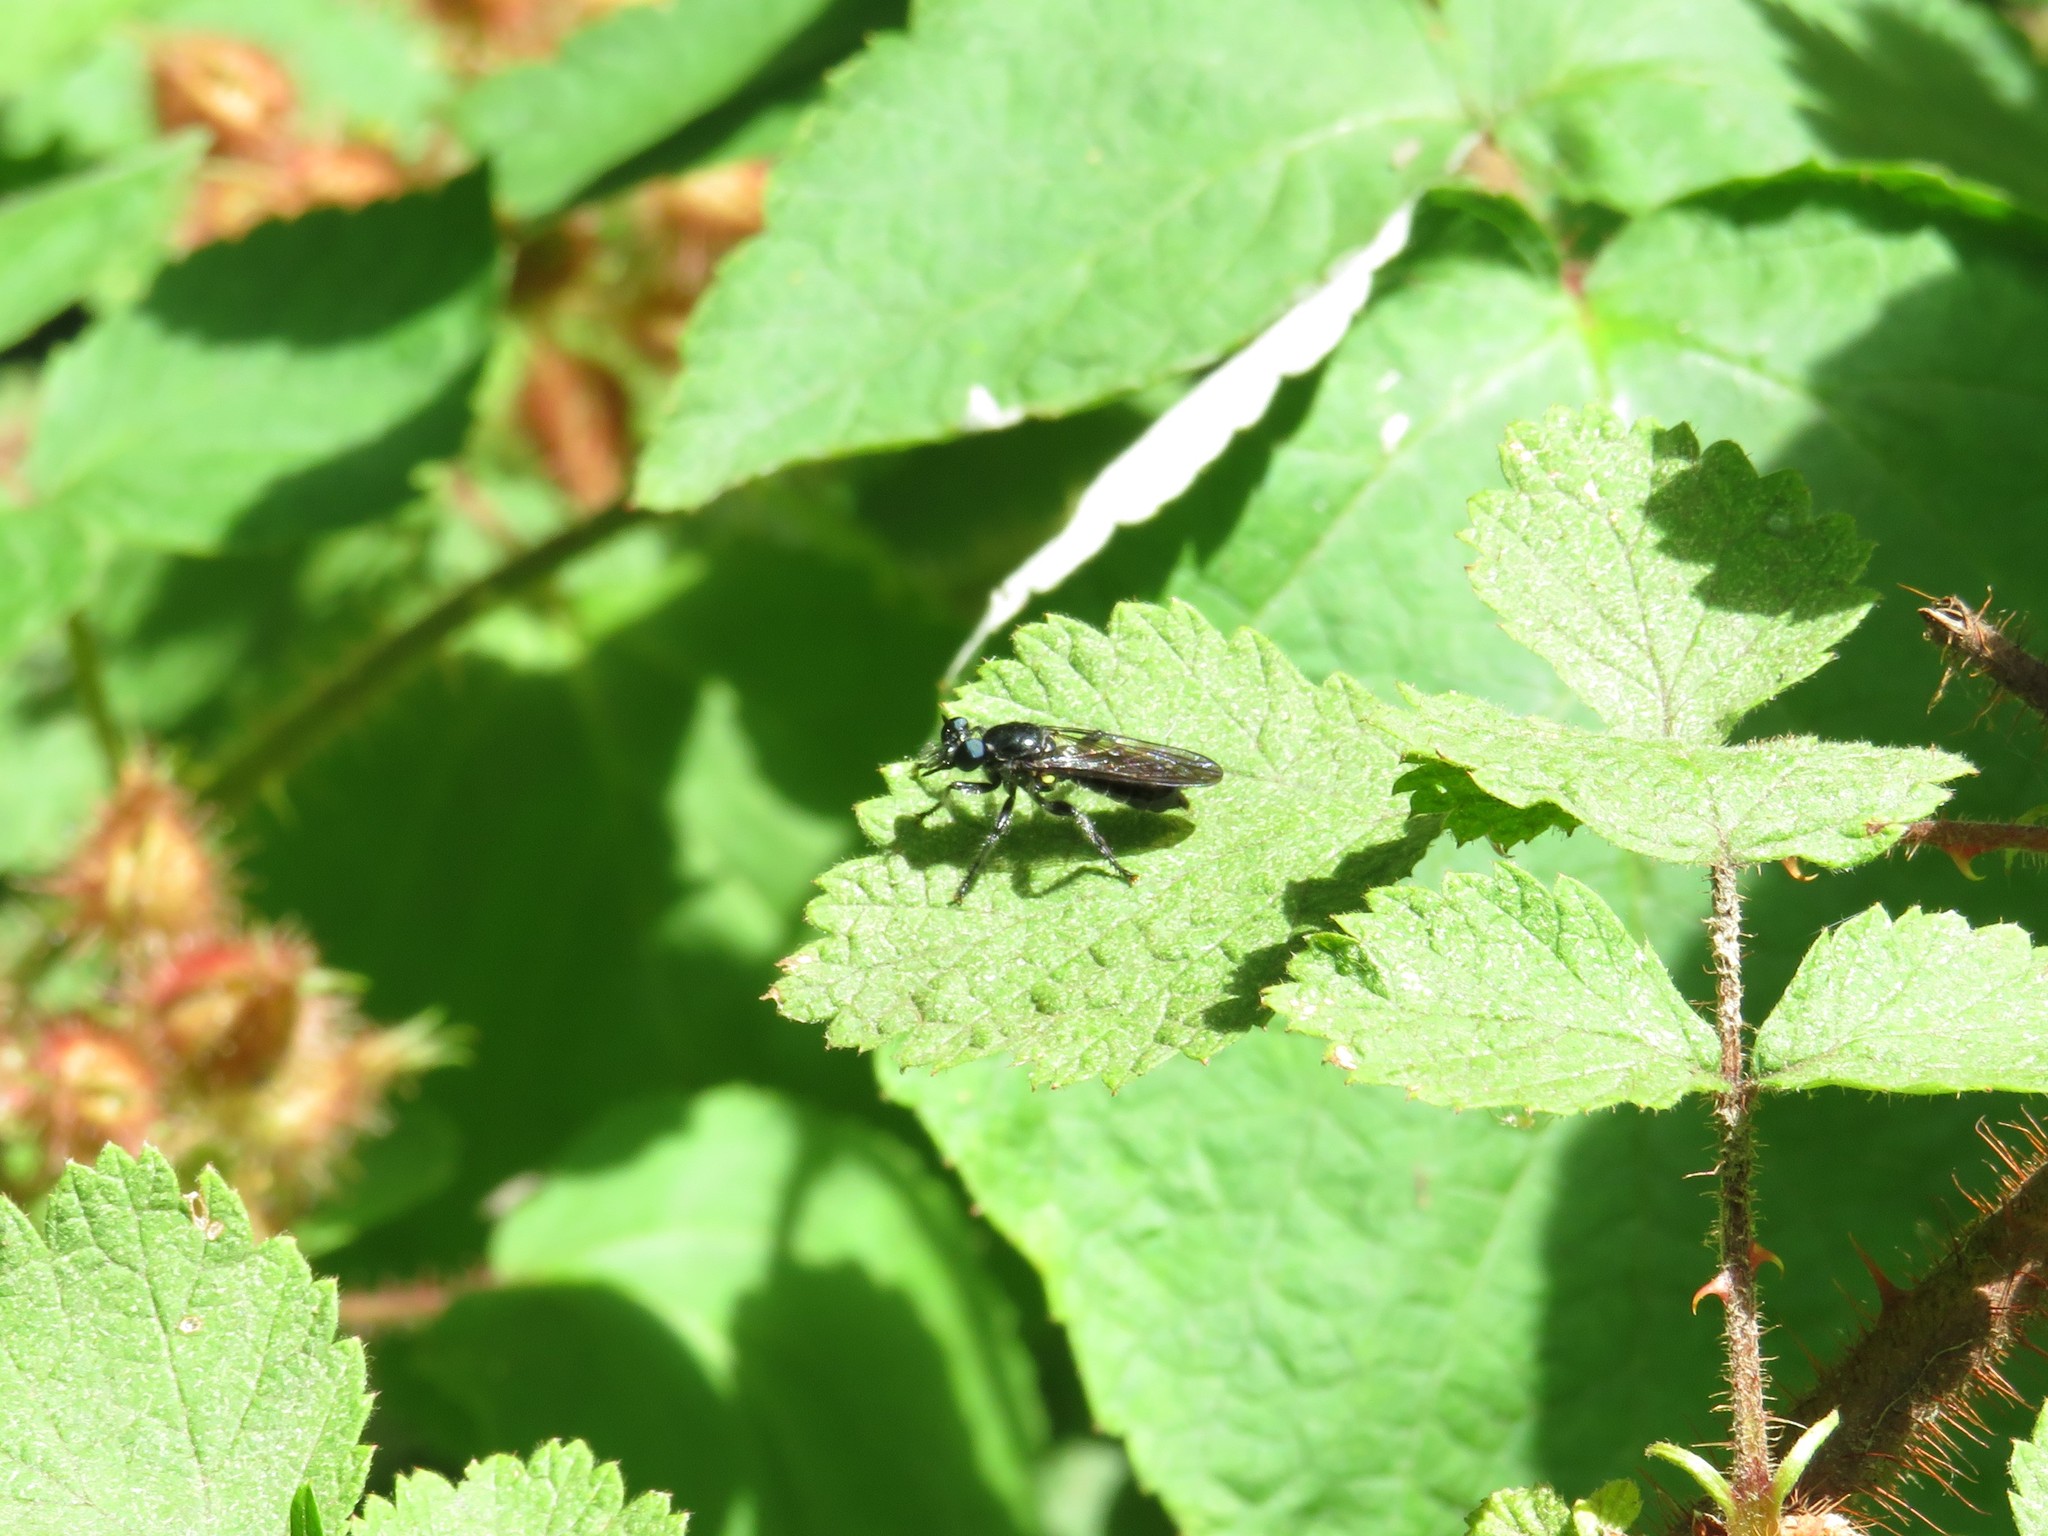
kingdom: Animalia
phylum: Arthropoda
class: Insecta
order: Diptera
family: Asilidae
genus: Laphria
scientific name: Laphria
